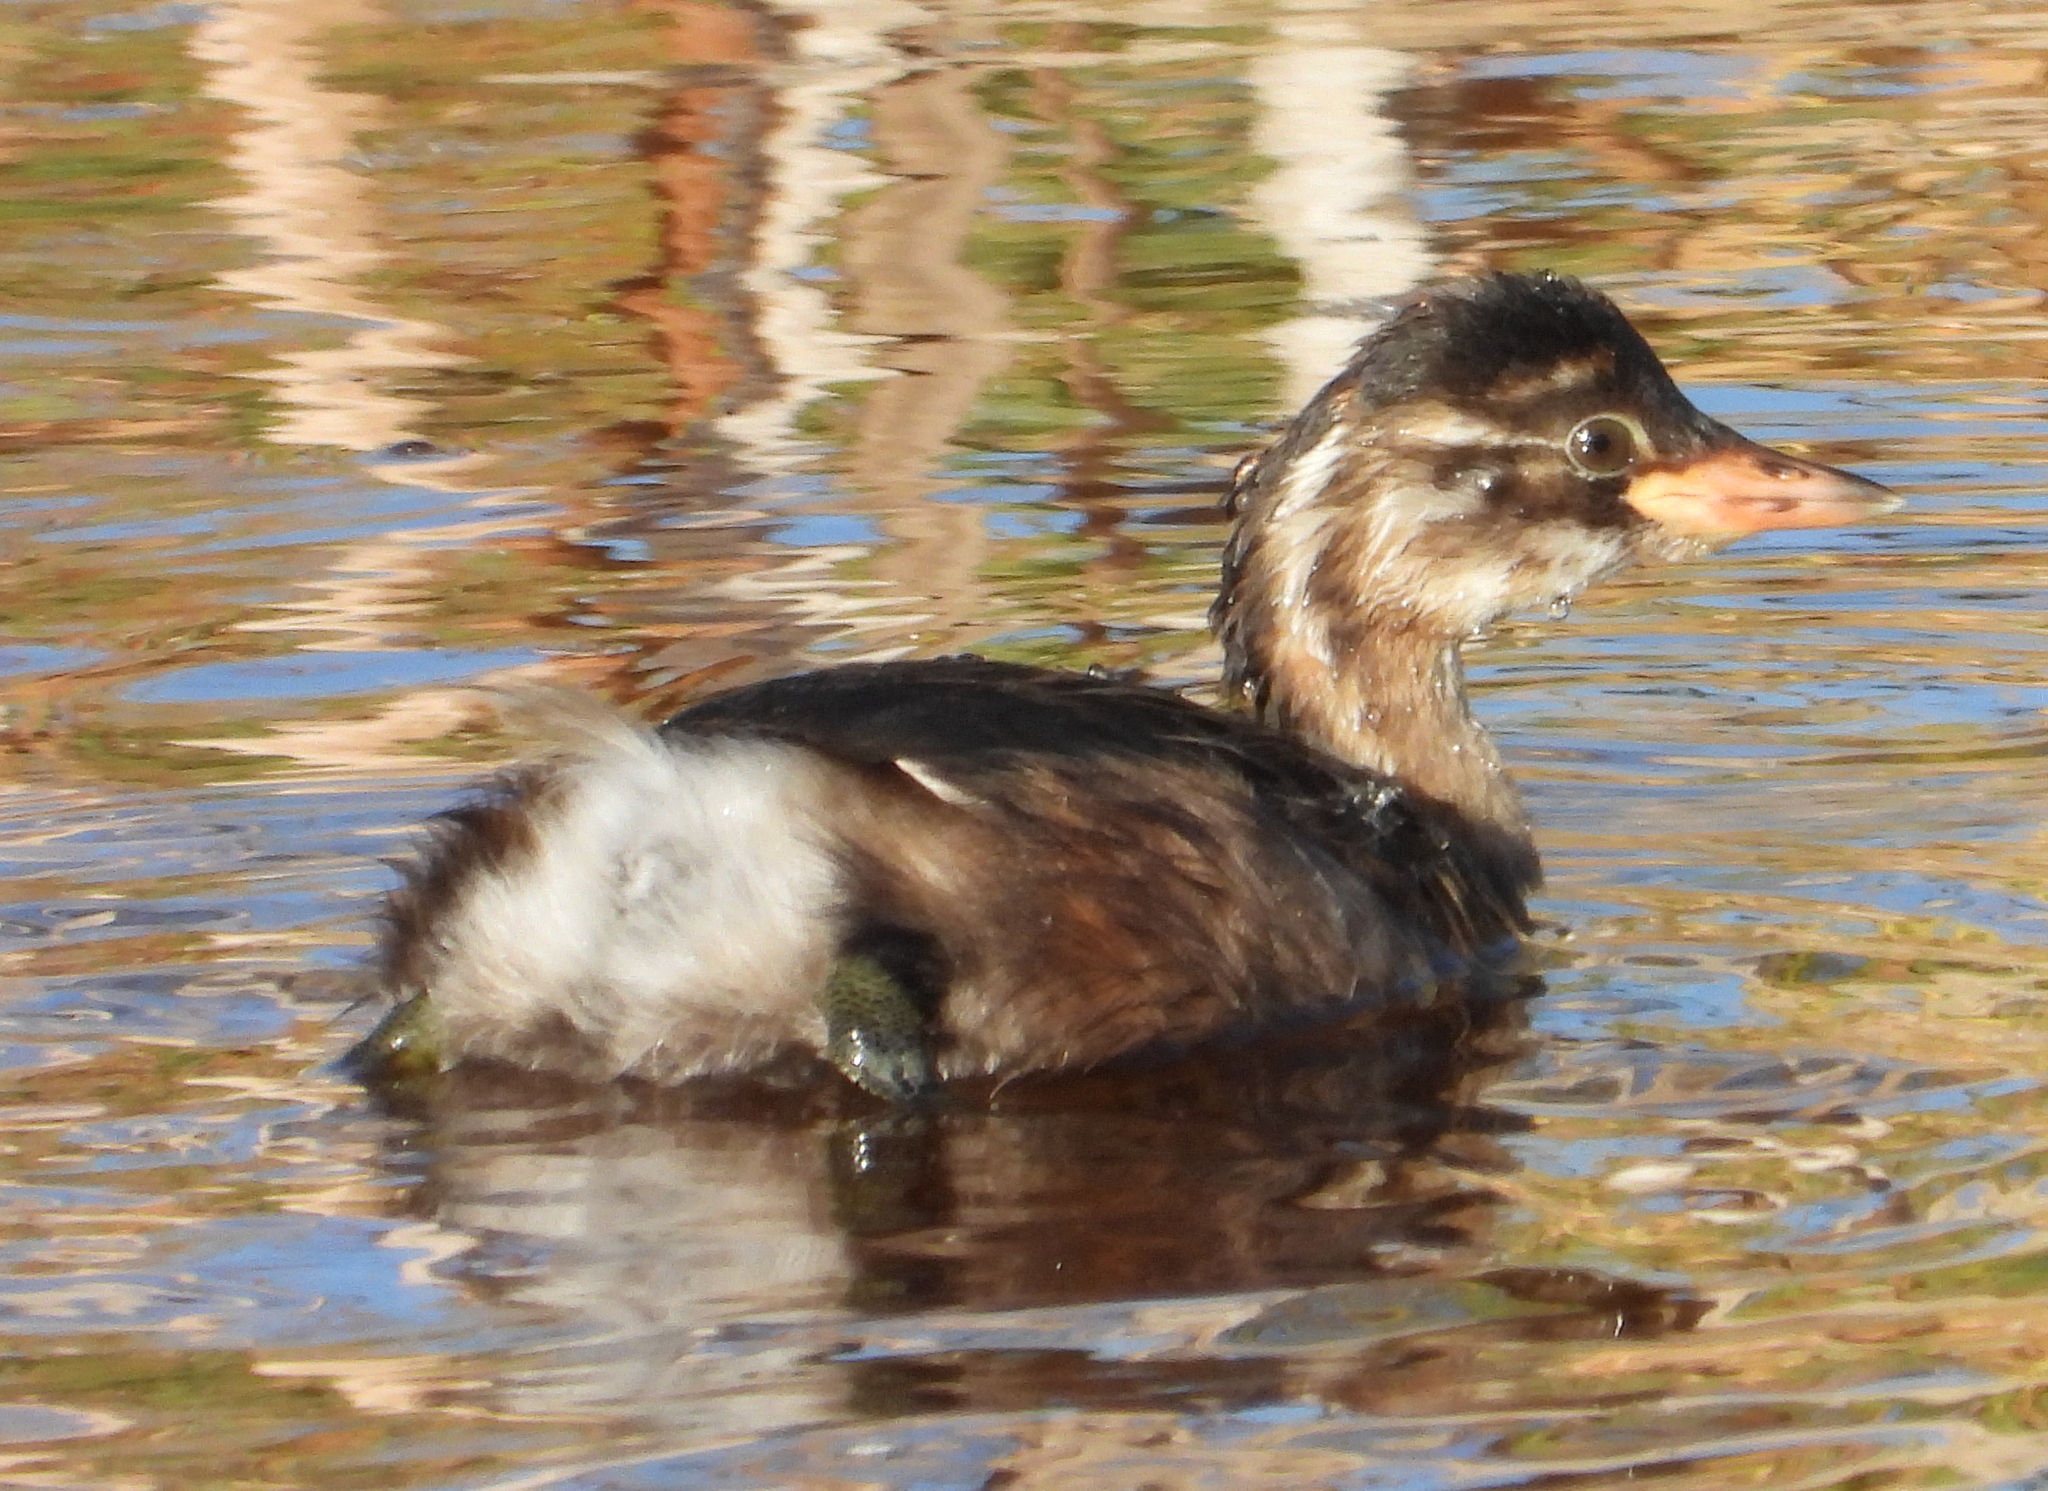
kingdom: Animalia
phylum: Chordata
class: Aves
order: Podicipediformes
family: Podicipedidae
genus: Tachybaptus
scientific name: Tachybaptus ruficollis
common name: Little grebe
